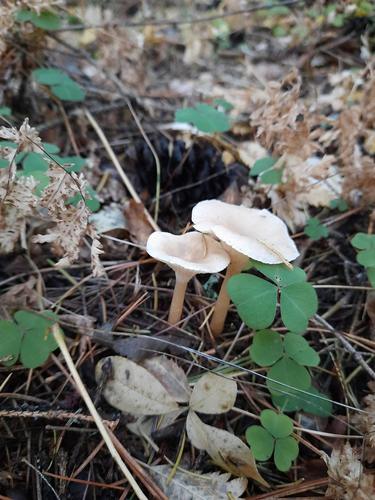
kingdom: Fungi
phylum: Basidiomycota
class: Agaricomycetes
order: Agaricales
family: Tricholomataceae
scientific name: Tricholomataceae
